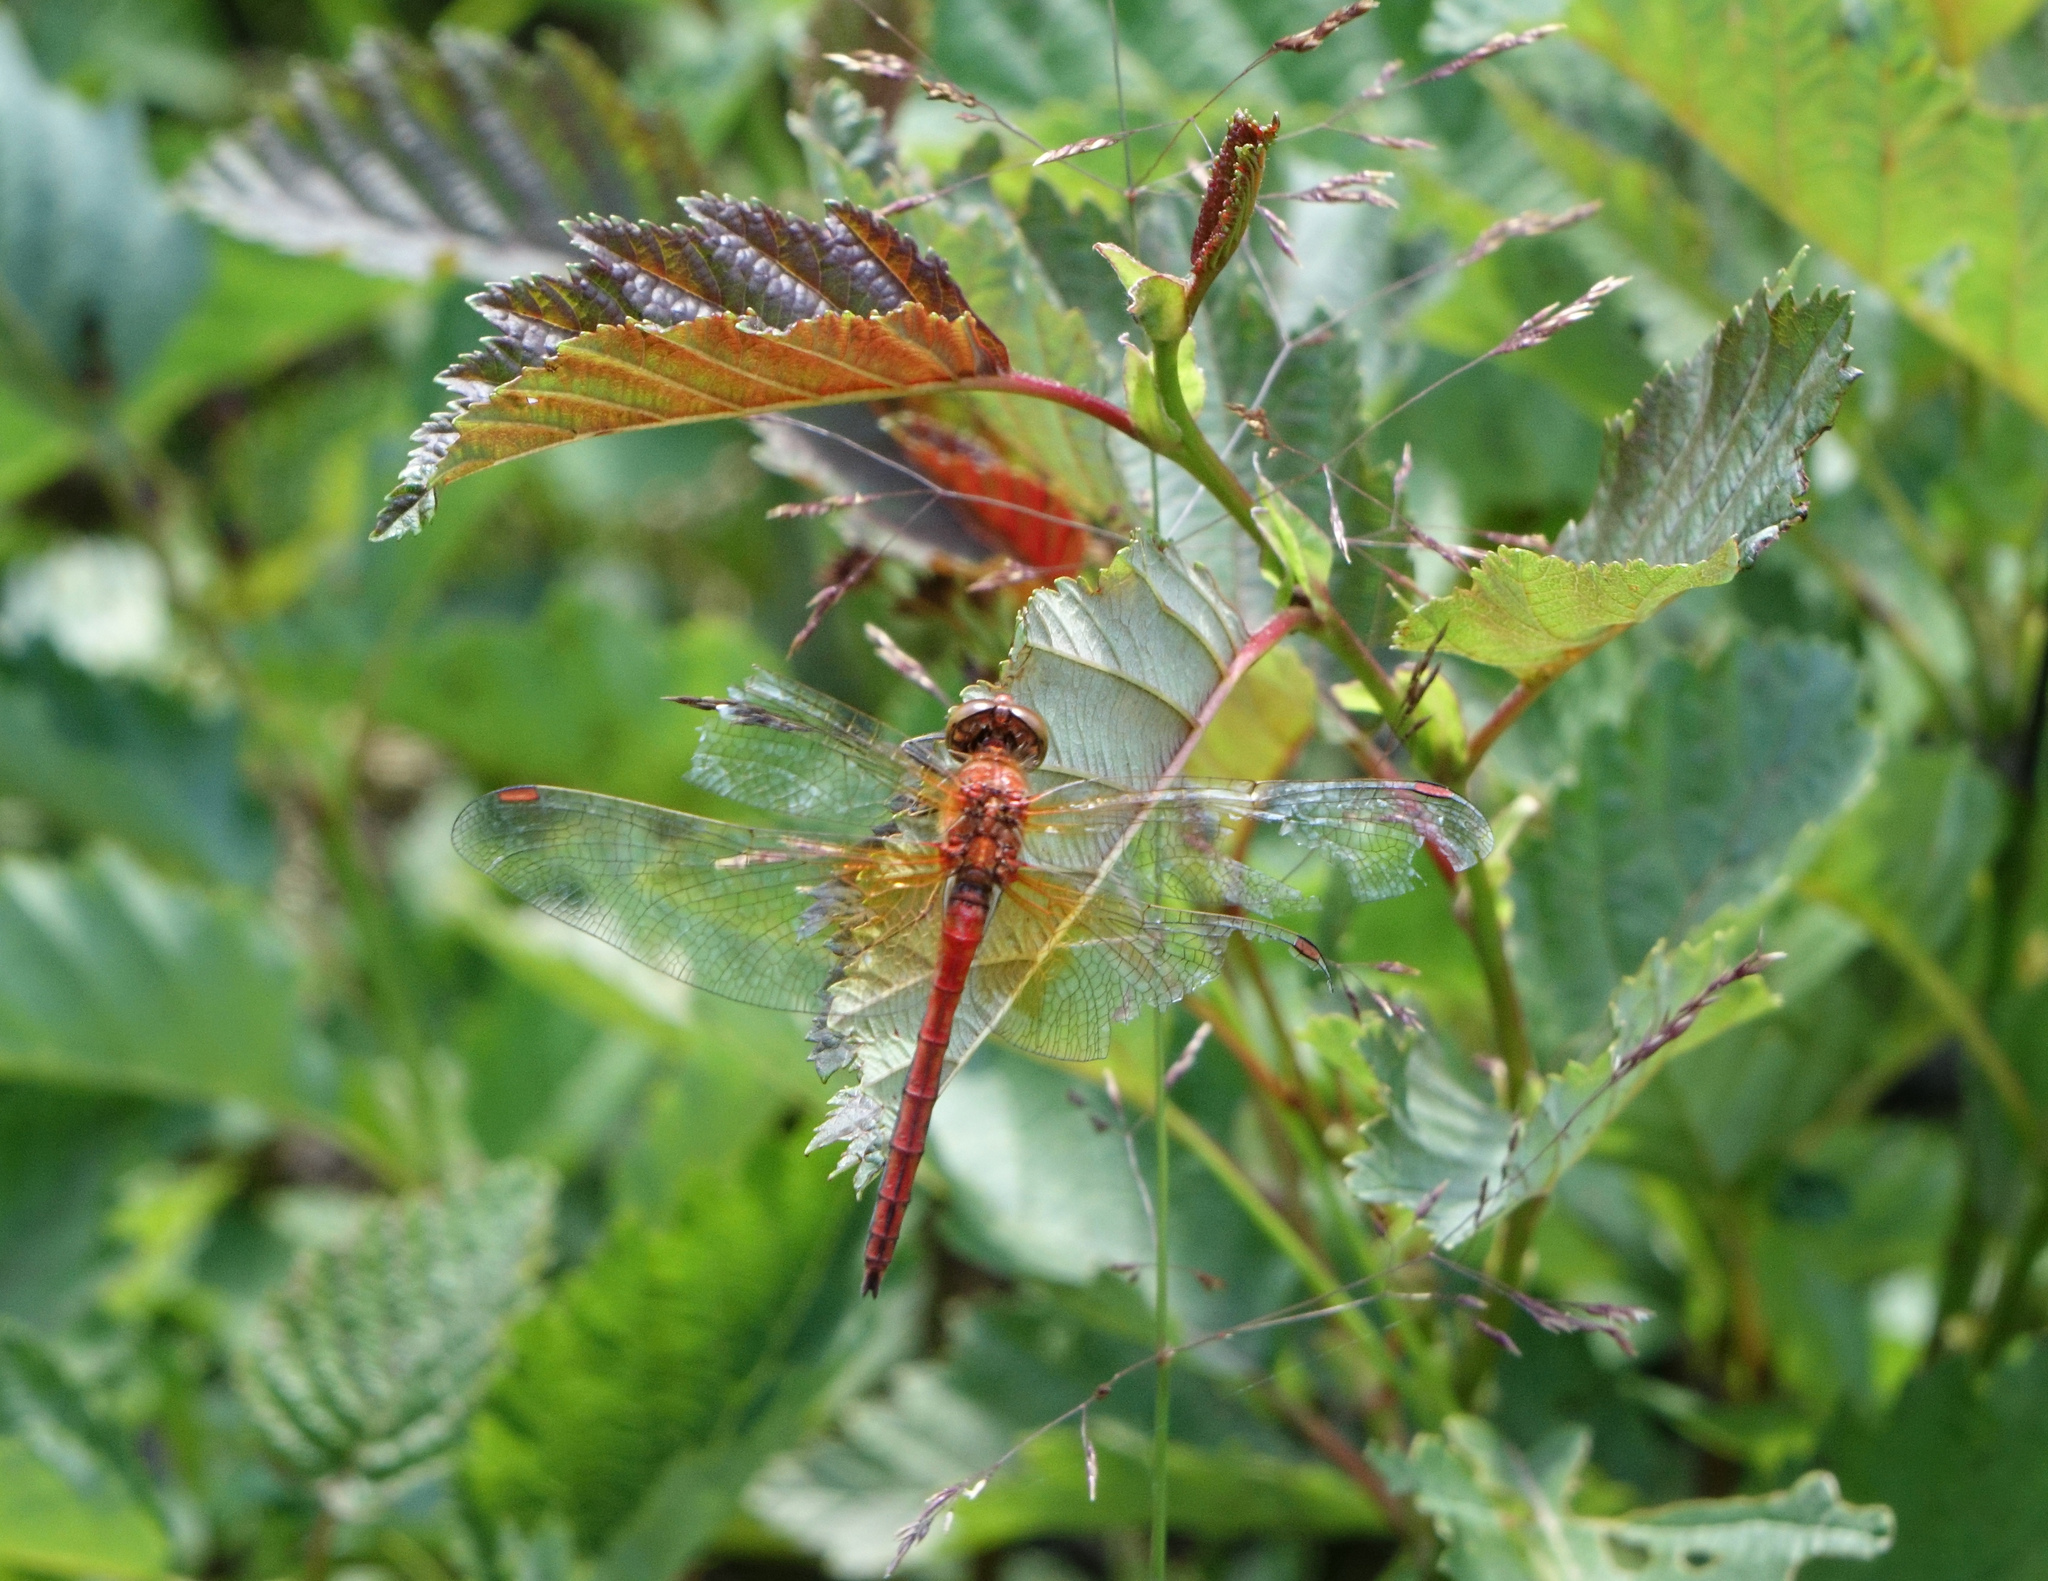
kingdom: Animalia
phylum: Arthropoda
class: Insecta
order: Odonata
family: Libellulidae
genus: Sympetrum
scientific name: Sympetrum flaveolum
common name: Yellow-winged darter
